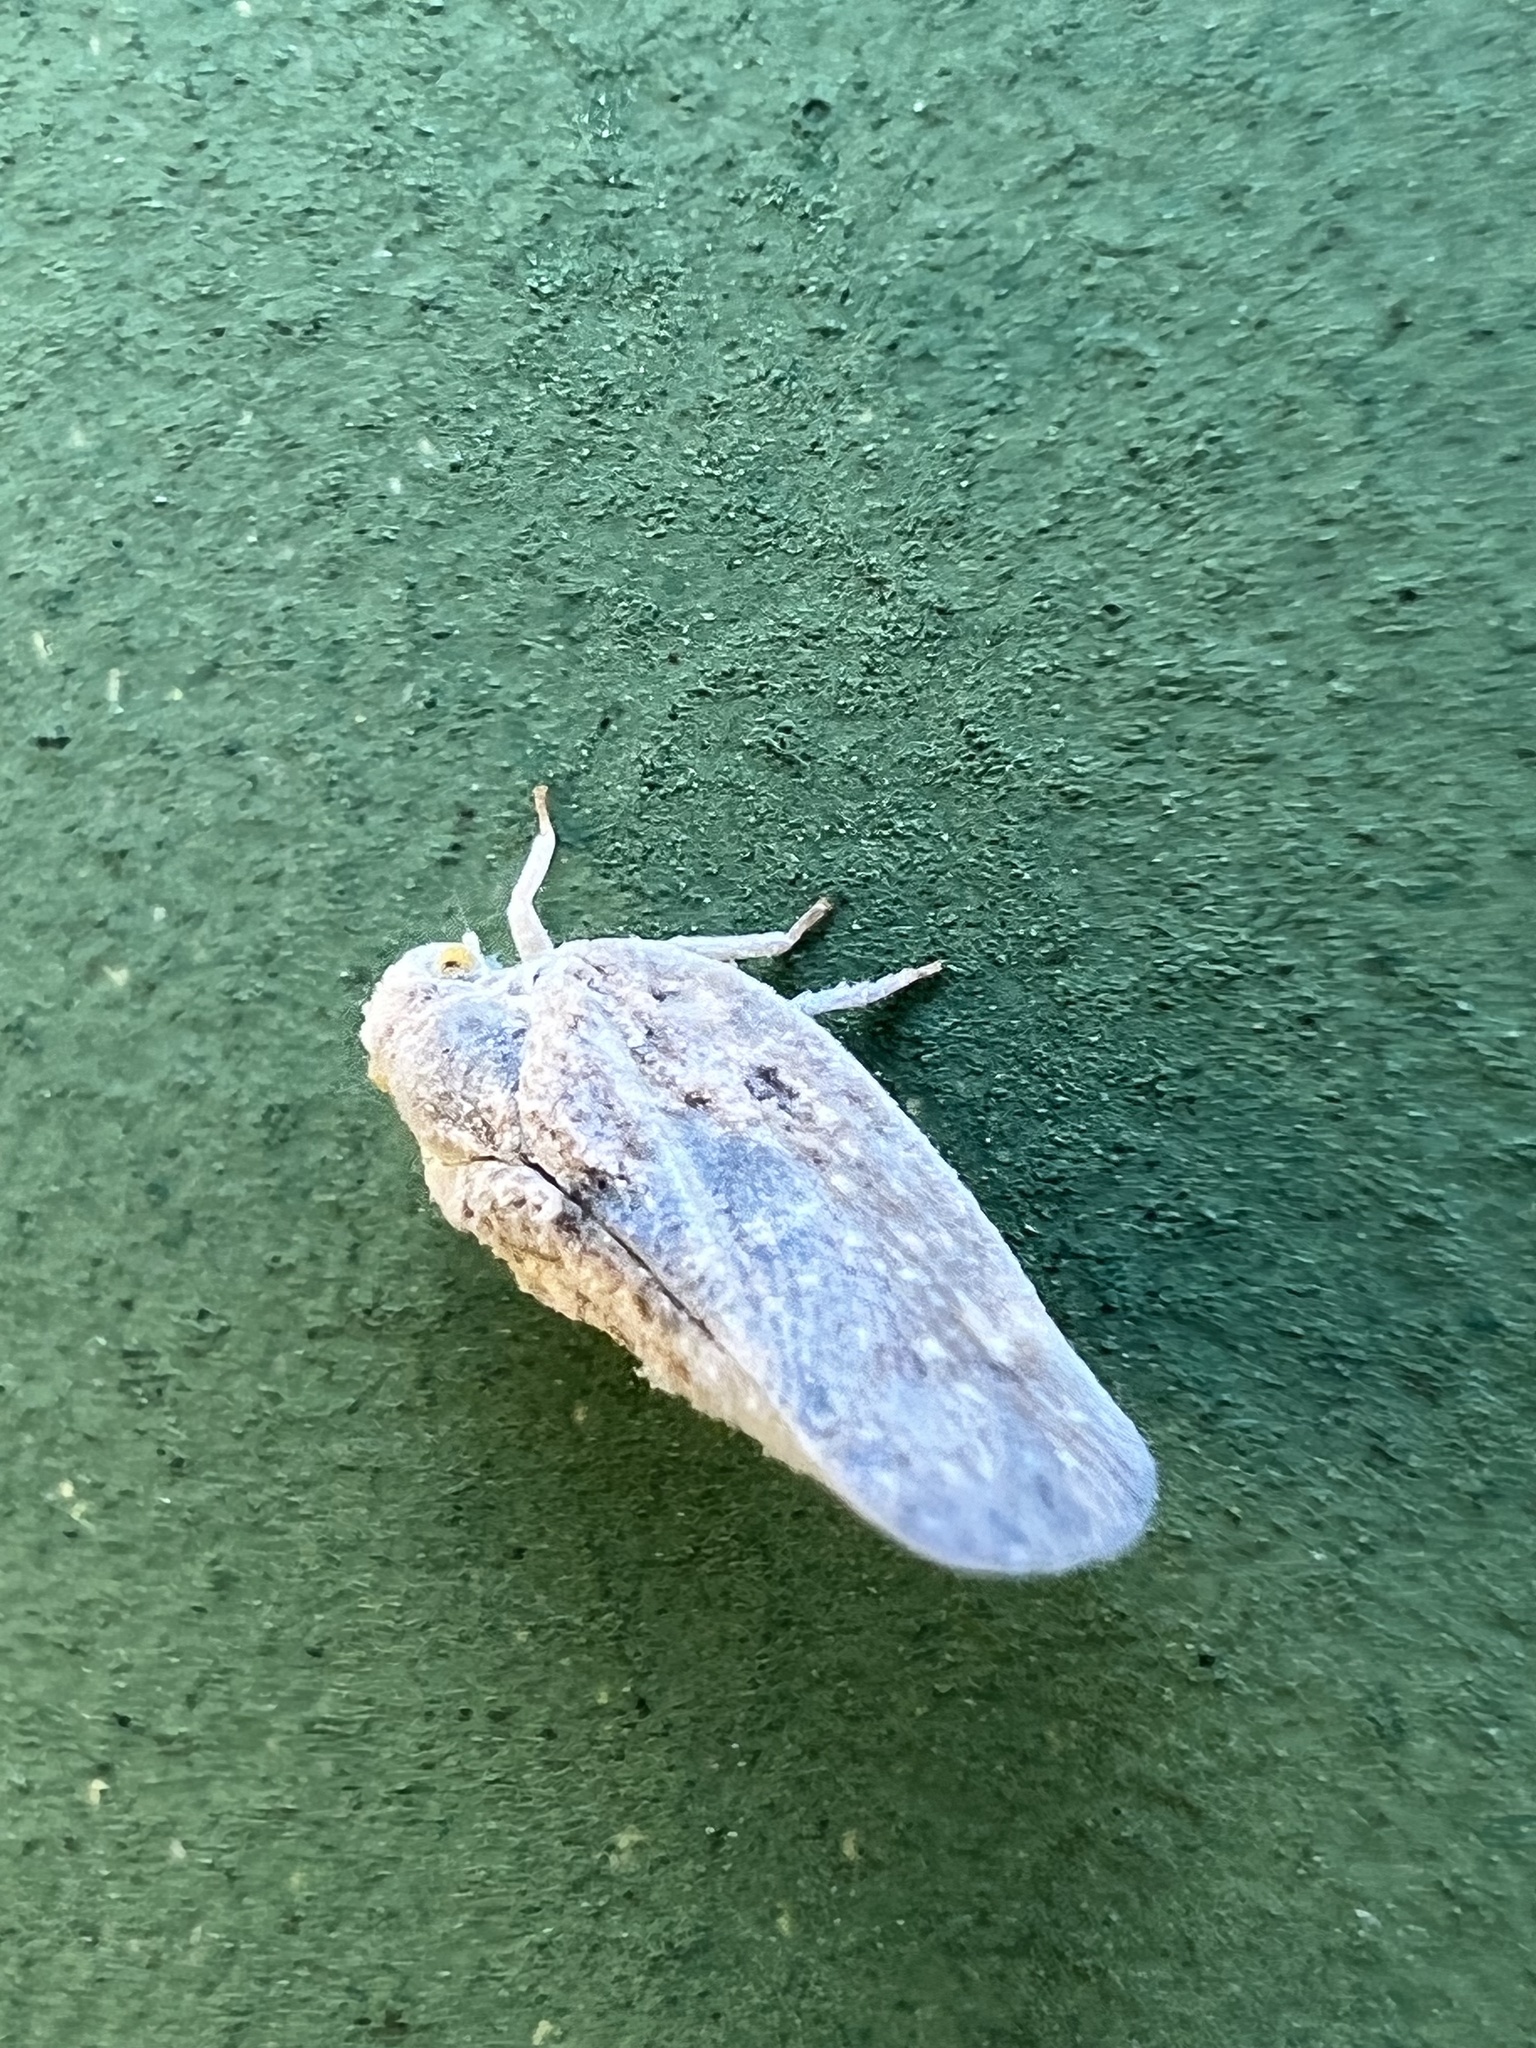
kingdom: Animalia
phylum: Arthropoda
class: Insecta
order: Hemiptera
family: Flatidae
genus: Metcalfa
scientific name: Metcalfa pruinosa
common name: Citrus flatid planthopper
